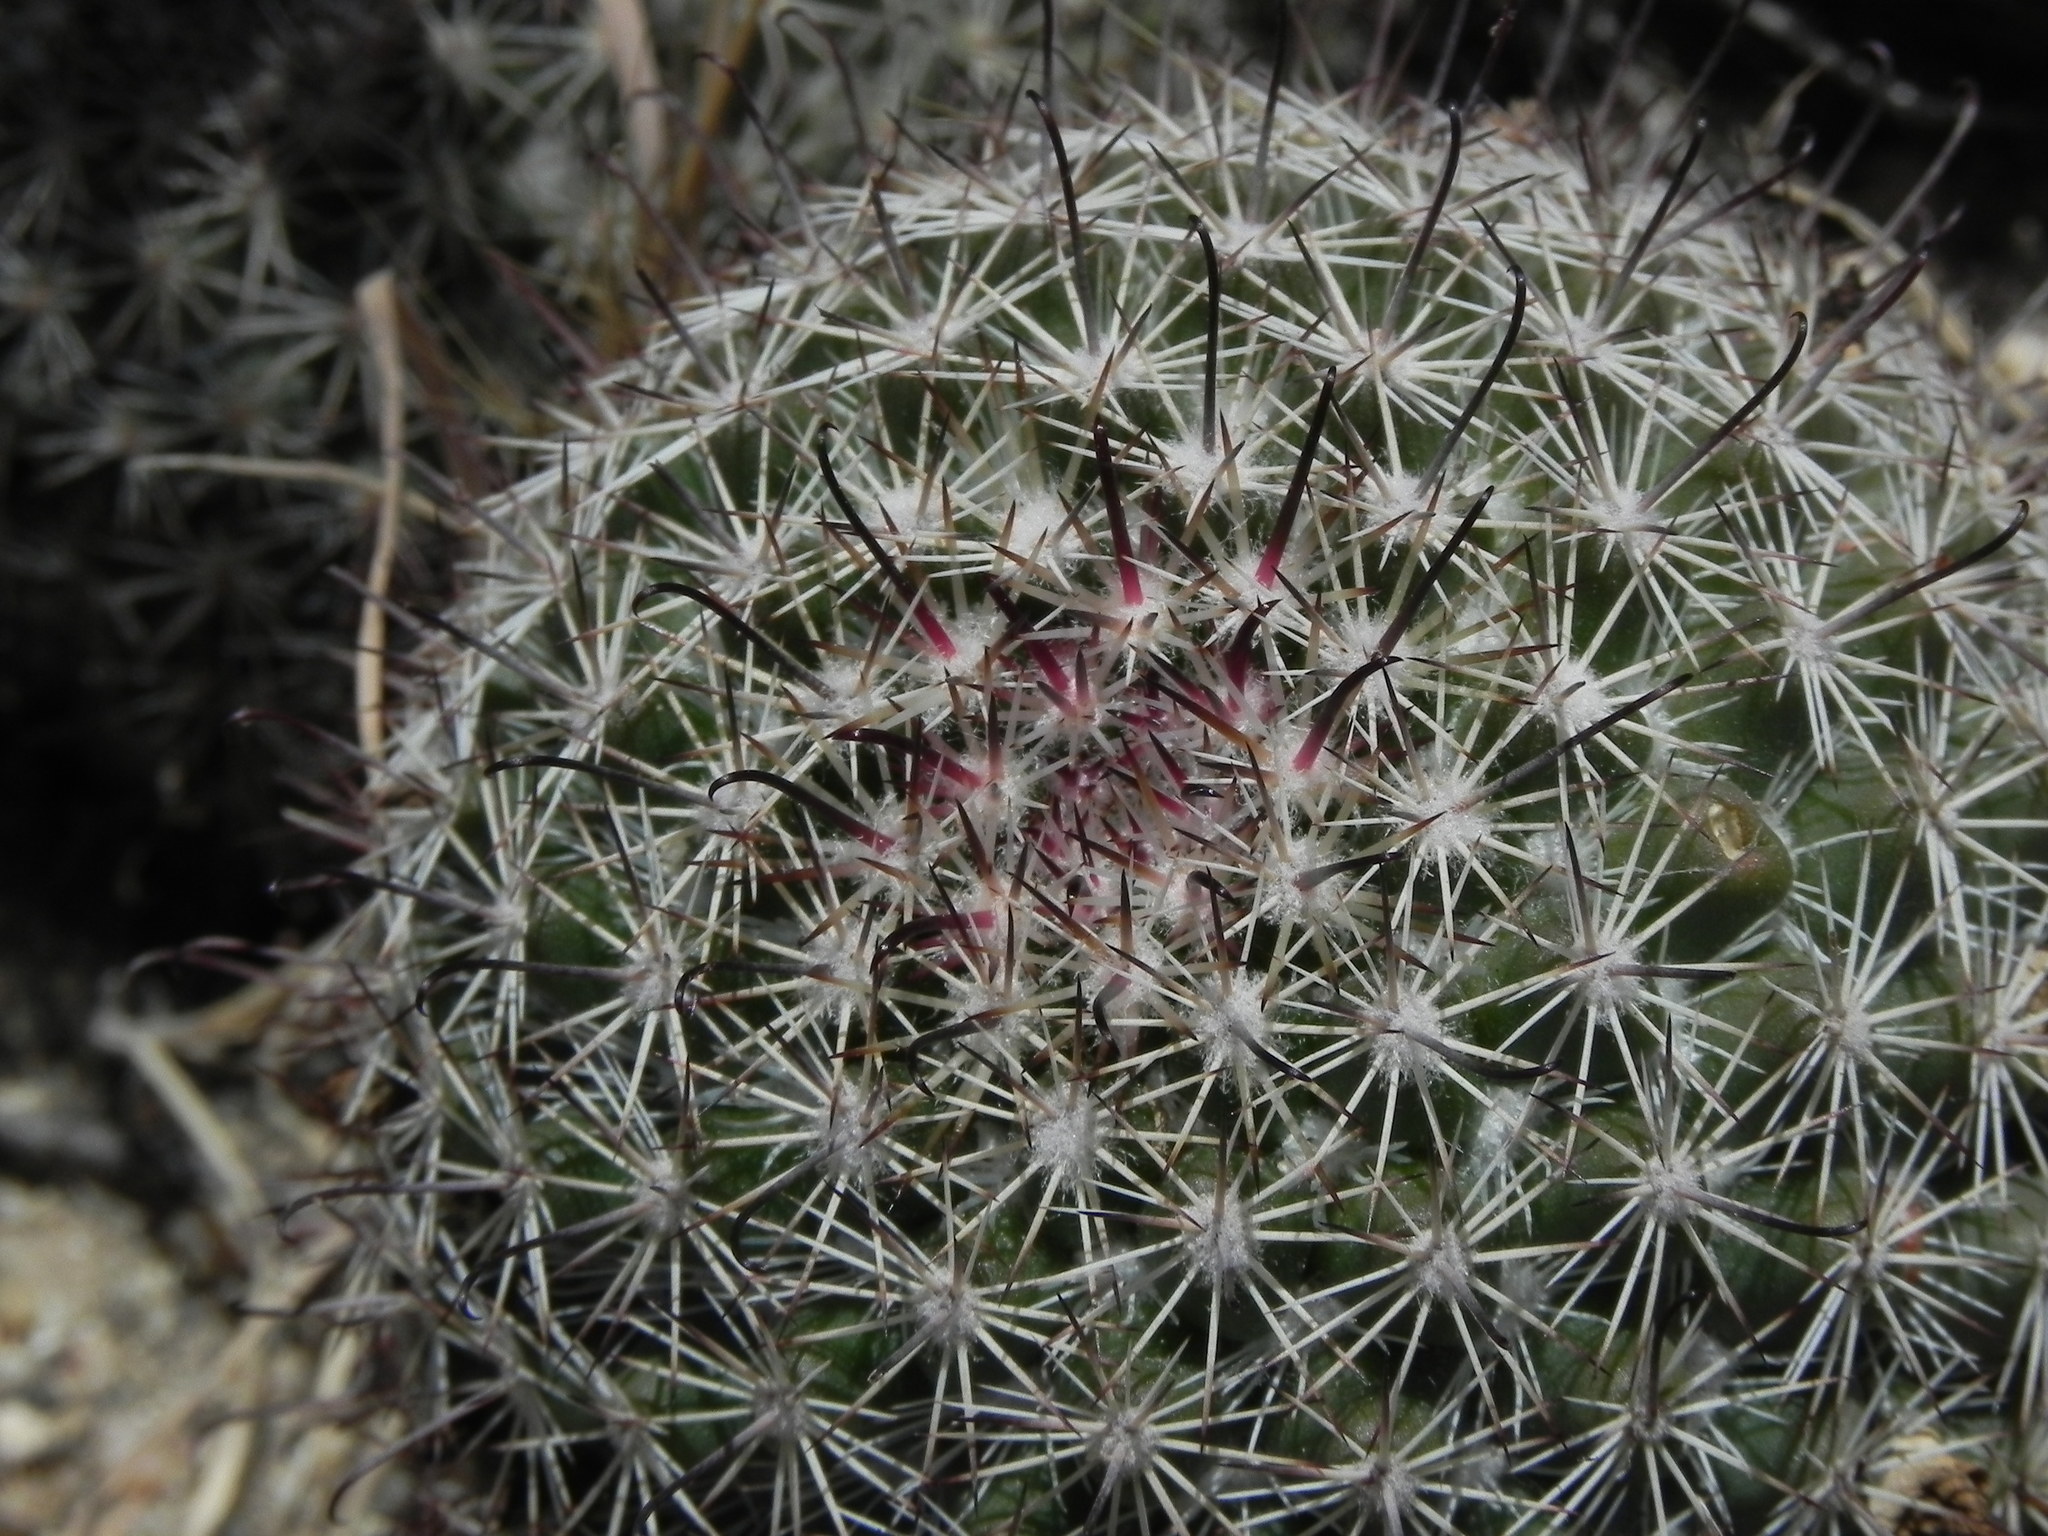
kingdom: Plantae
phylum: Tracheophyta
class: Magnoliopsida
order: Caryophyllales
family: Cactaceae
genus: Cochemiea
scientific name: Cochemiea dioica
